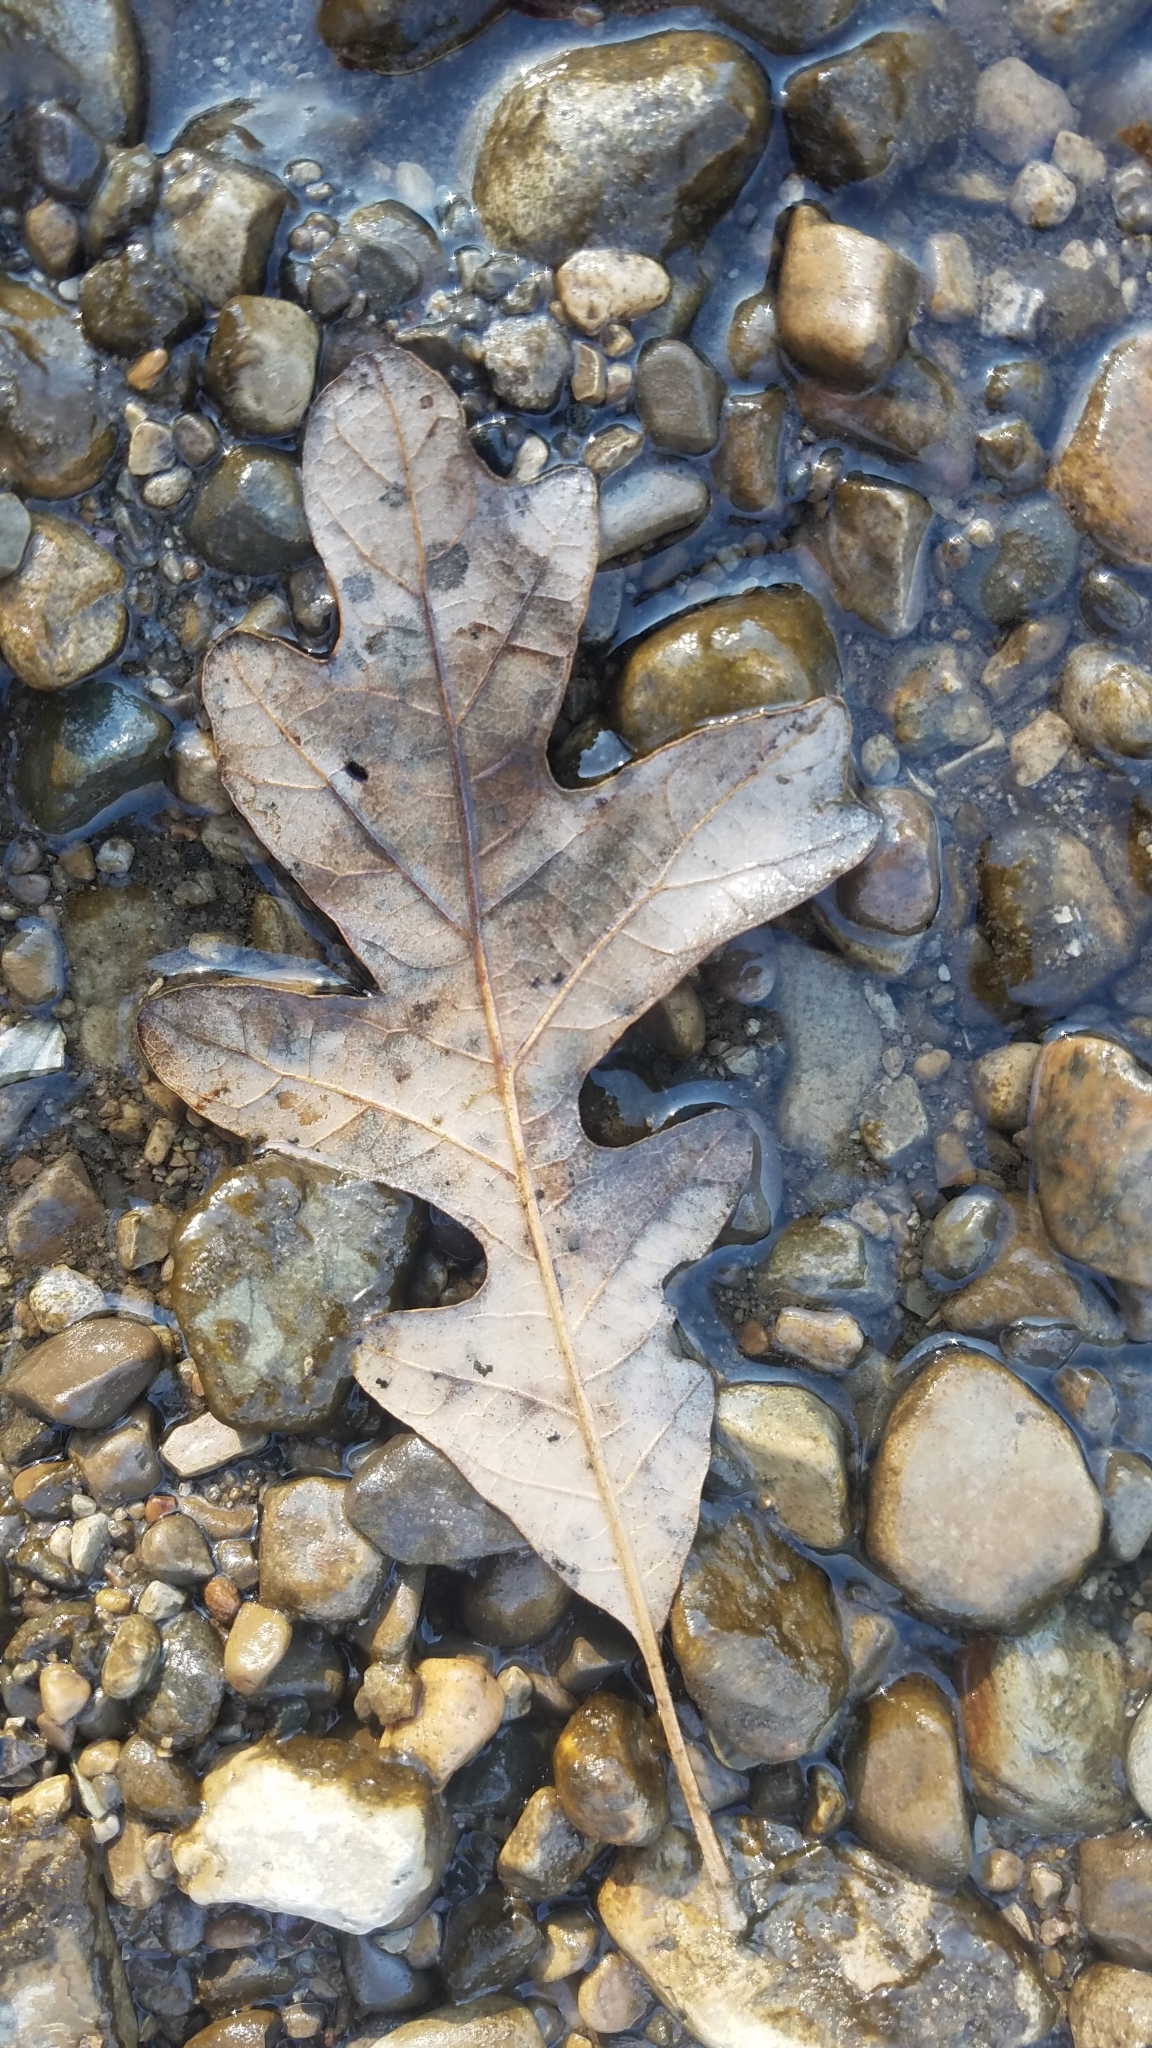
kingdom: Plantae
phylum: Tracheophyta
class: Magnoliopsida
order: Fagales
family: Fagaceae
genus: Quercus
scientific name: Quercus alba
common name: White oak
